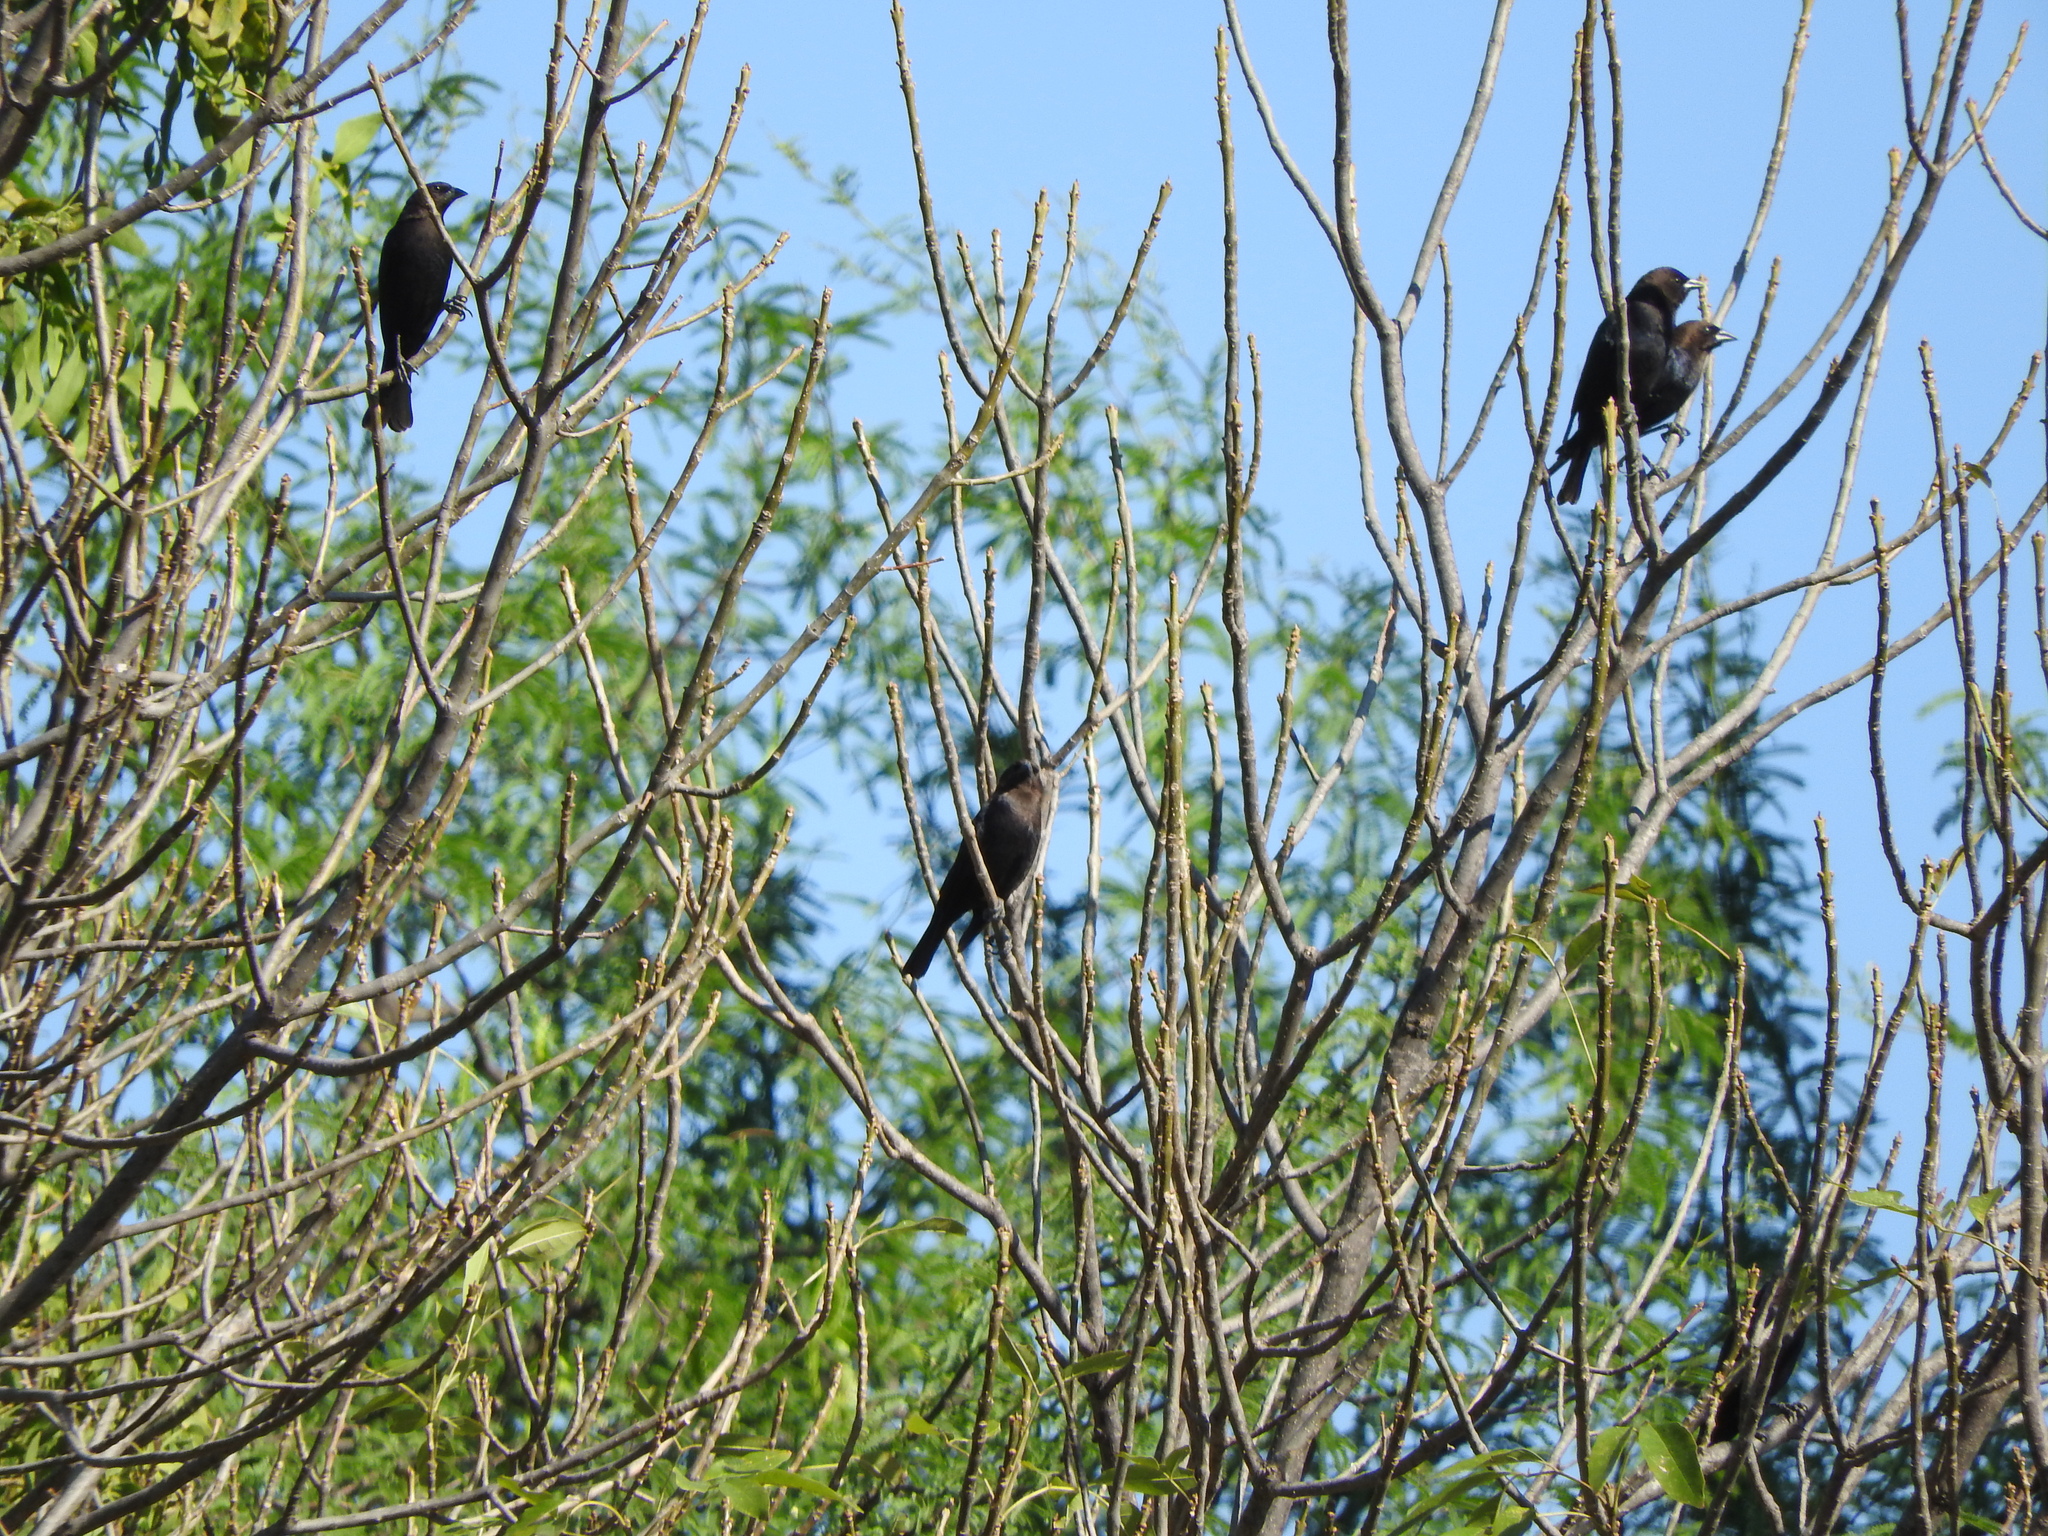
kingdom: Animalia
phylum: Chordata
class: Aves
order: Passeriformes
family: Icteridae
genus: Molothrus
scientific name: Molothrus ater
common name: Brown-headed cowbird
